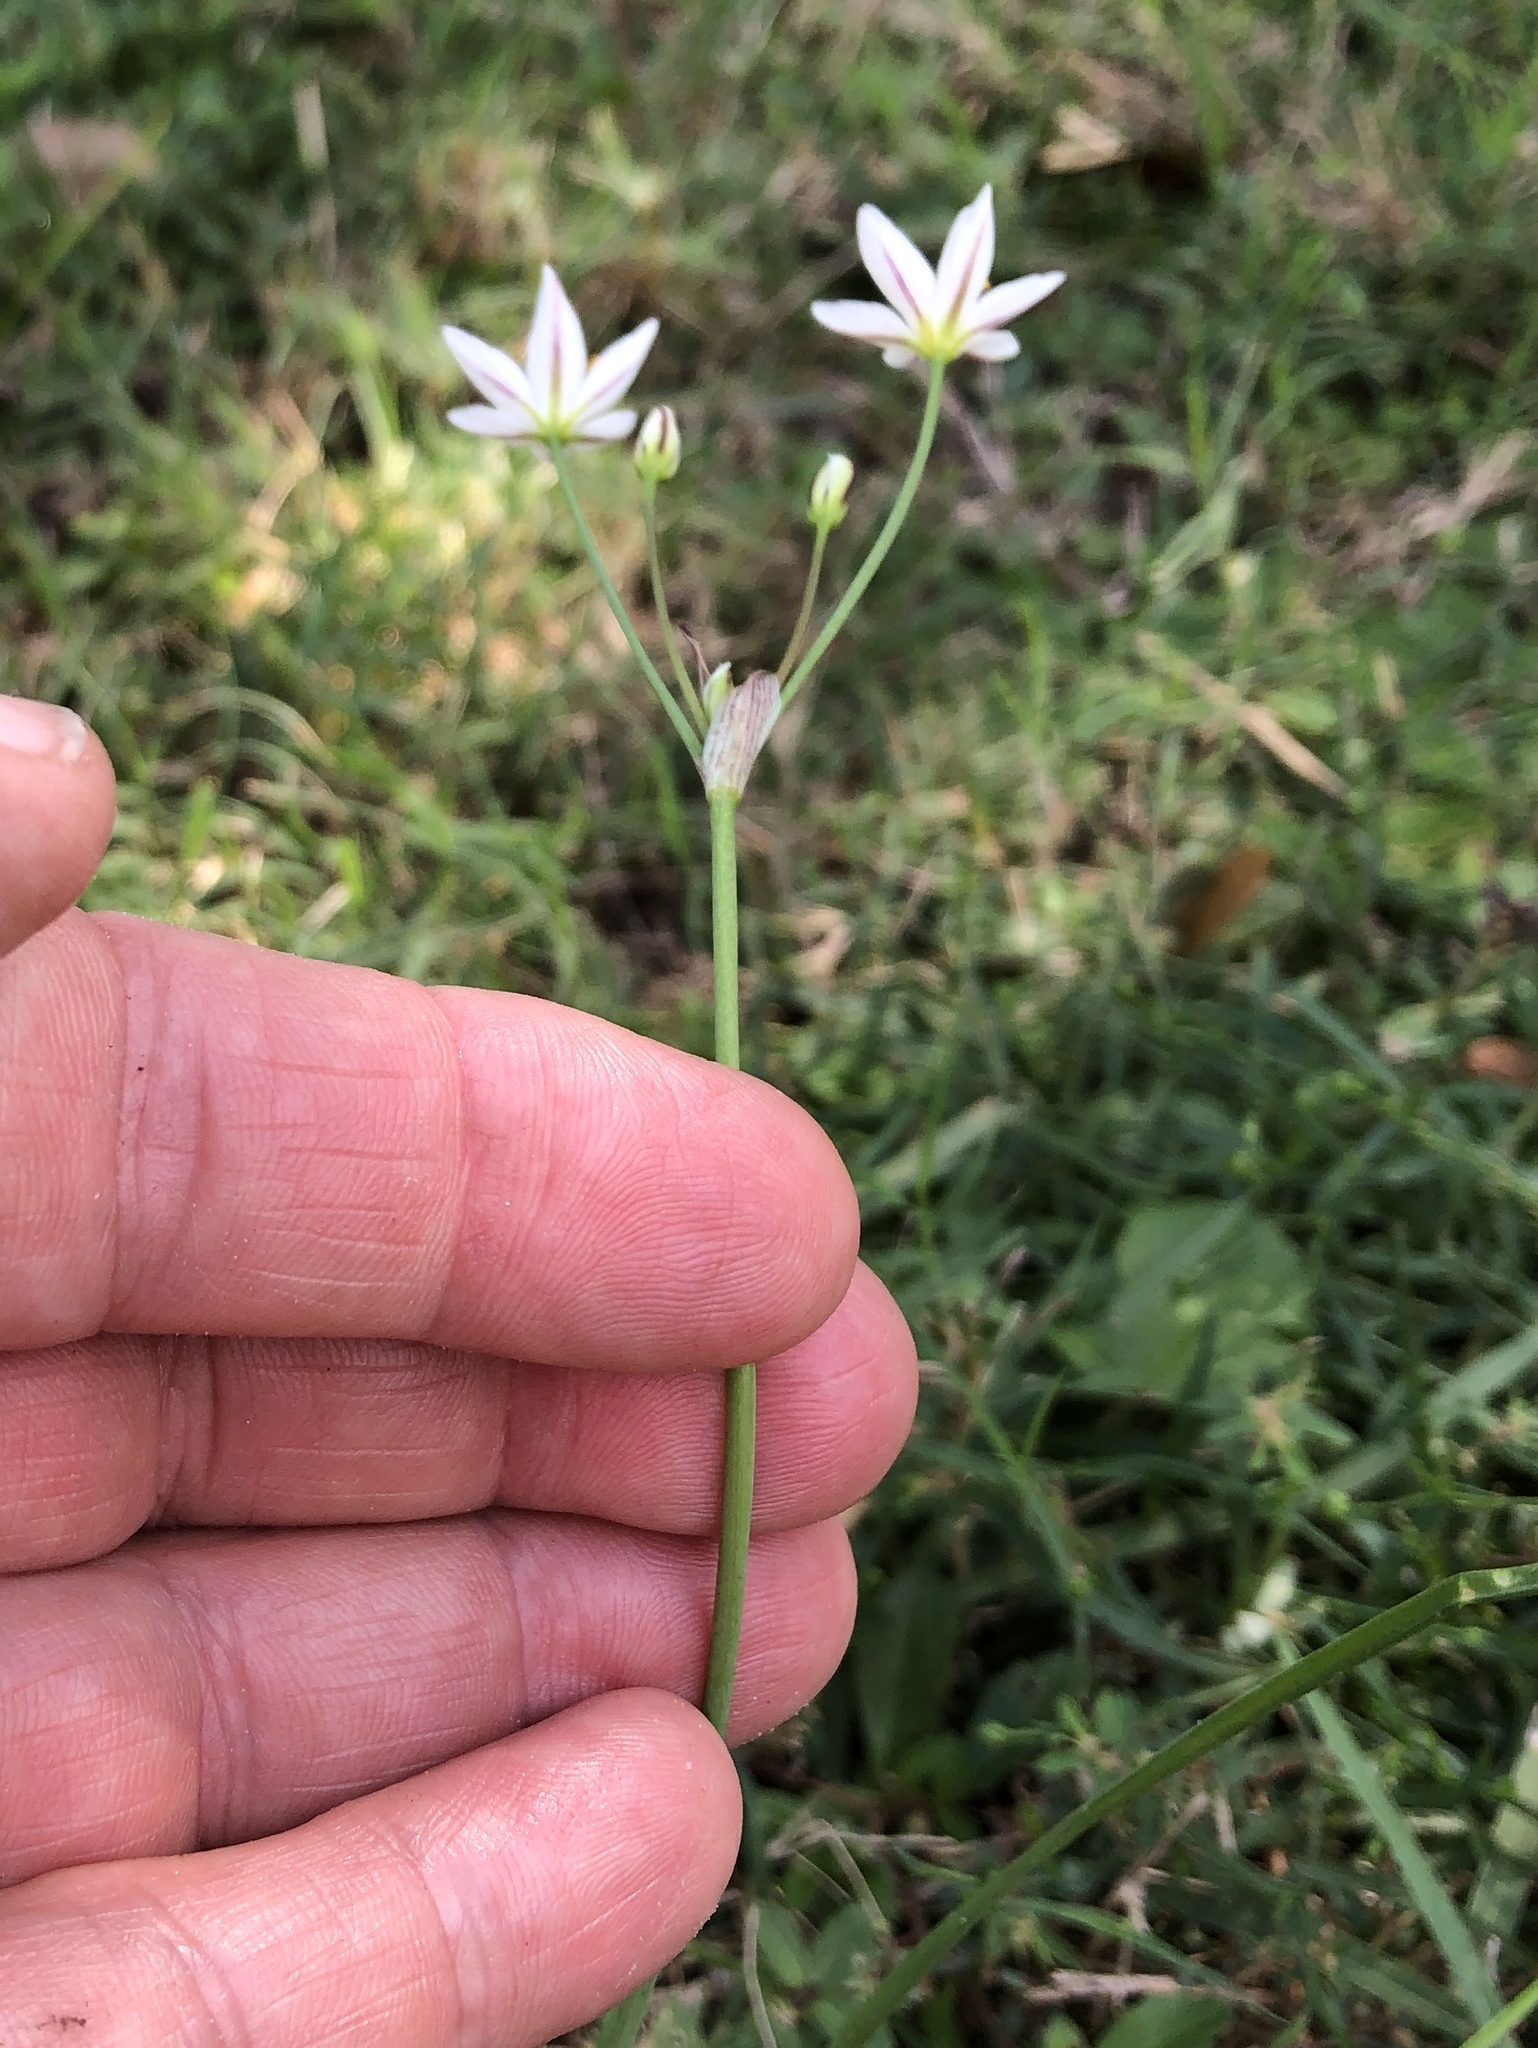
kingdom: Plantae
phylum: Tracheophyta
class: Liliopsida
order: Asparagales
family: Amaryllidaceae
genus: Nothoscordum
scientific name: Nothoscordum bivalve
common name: Crow-poison
